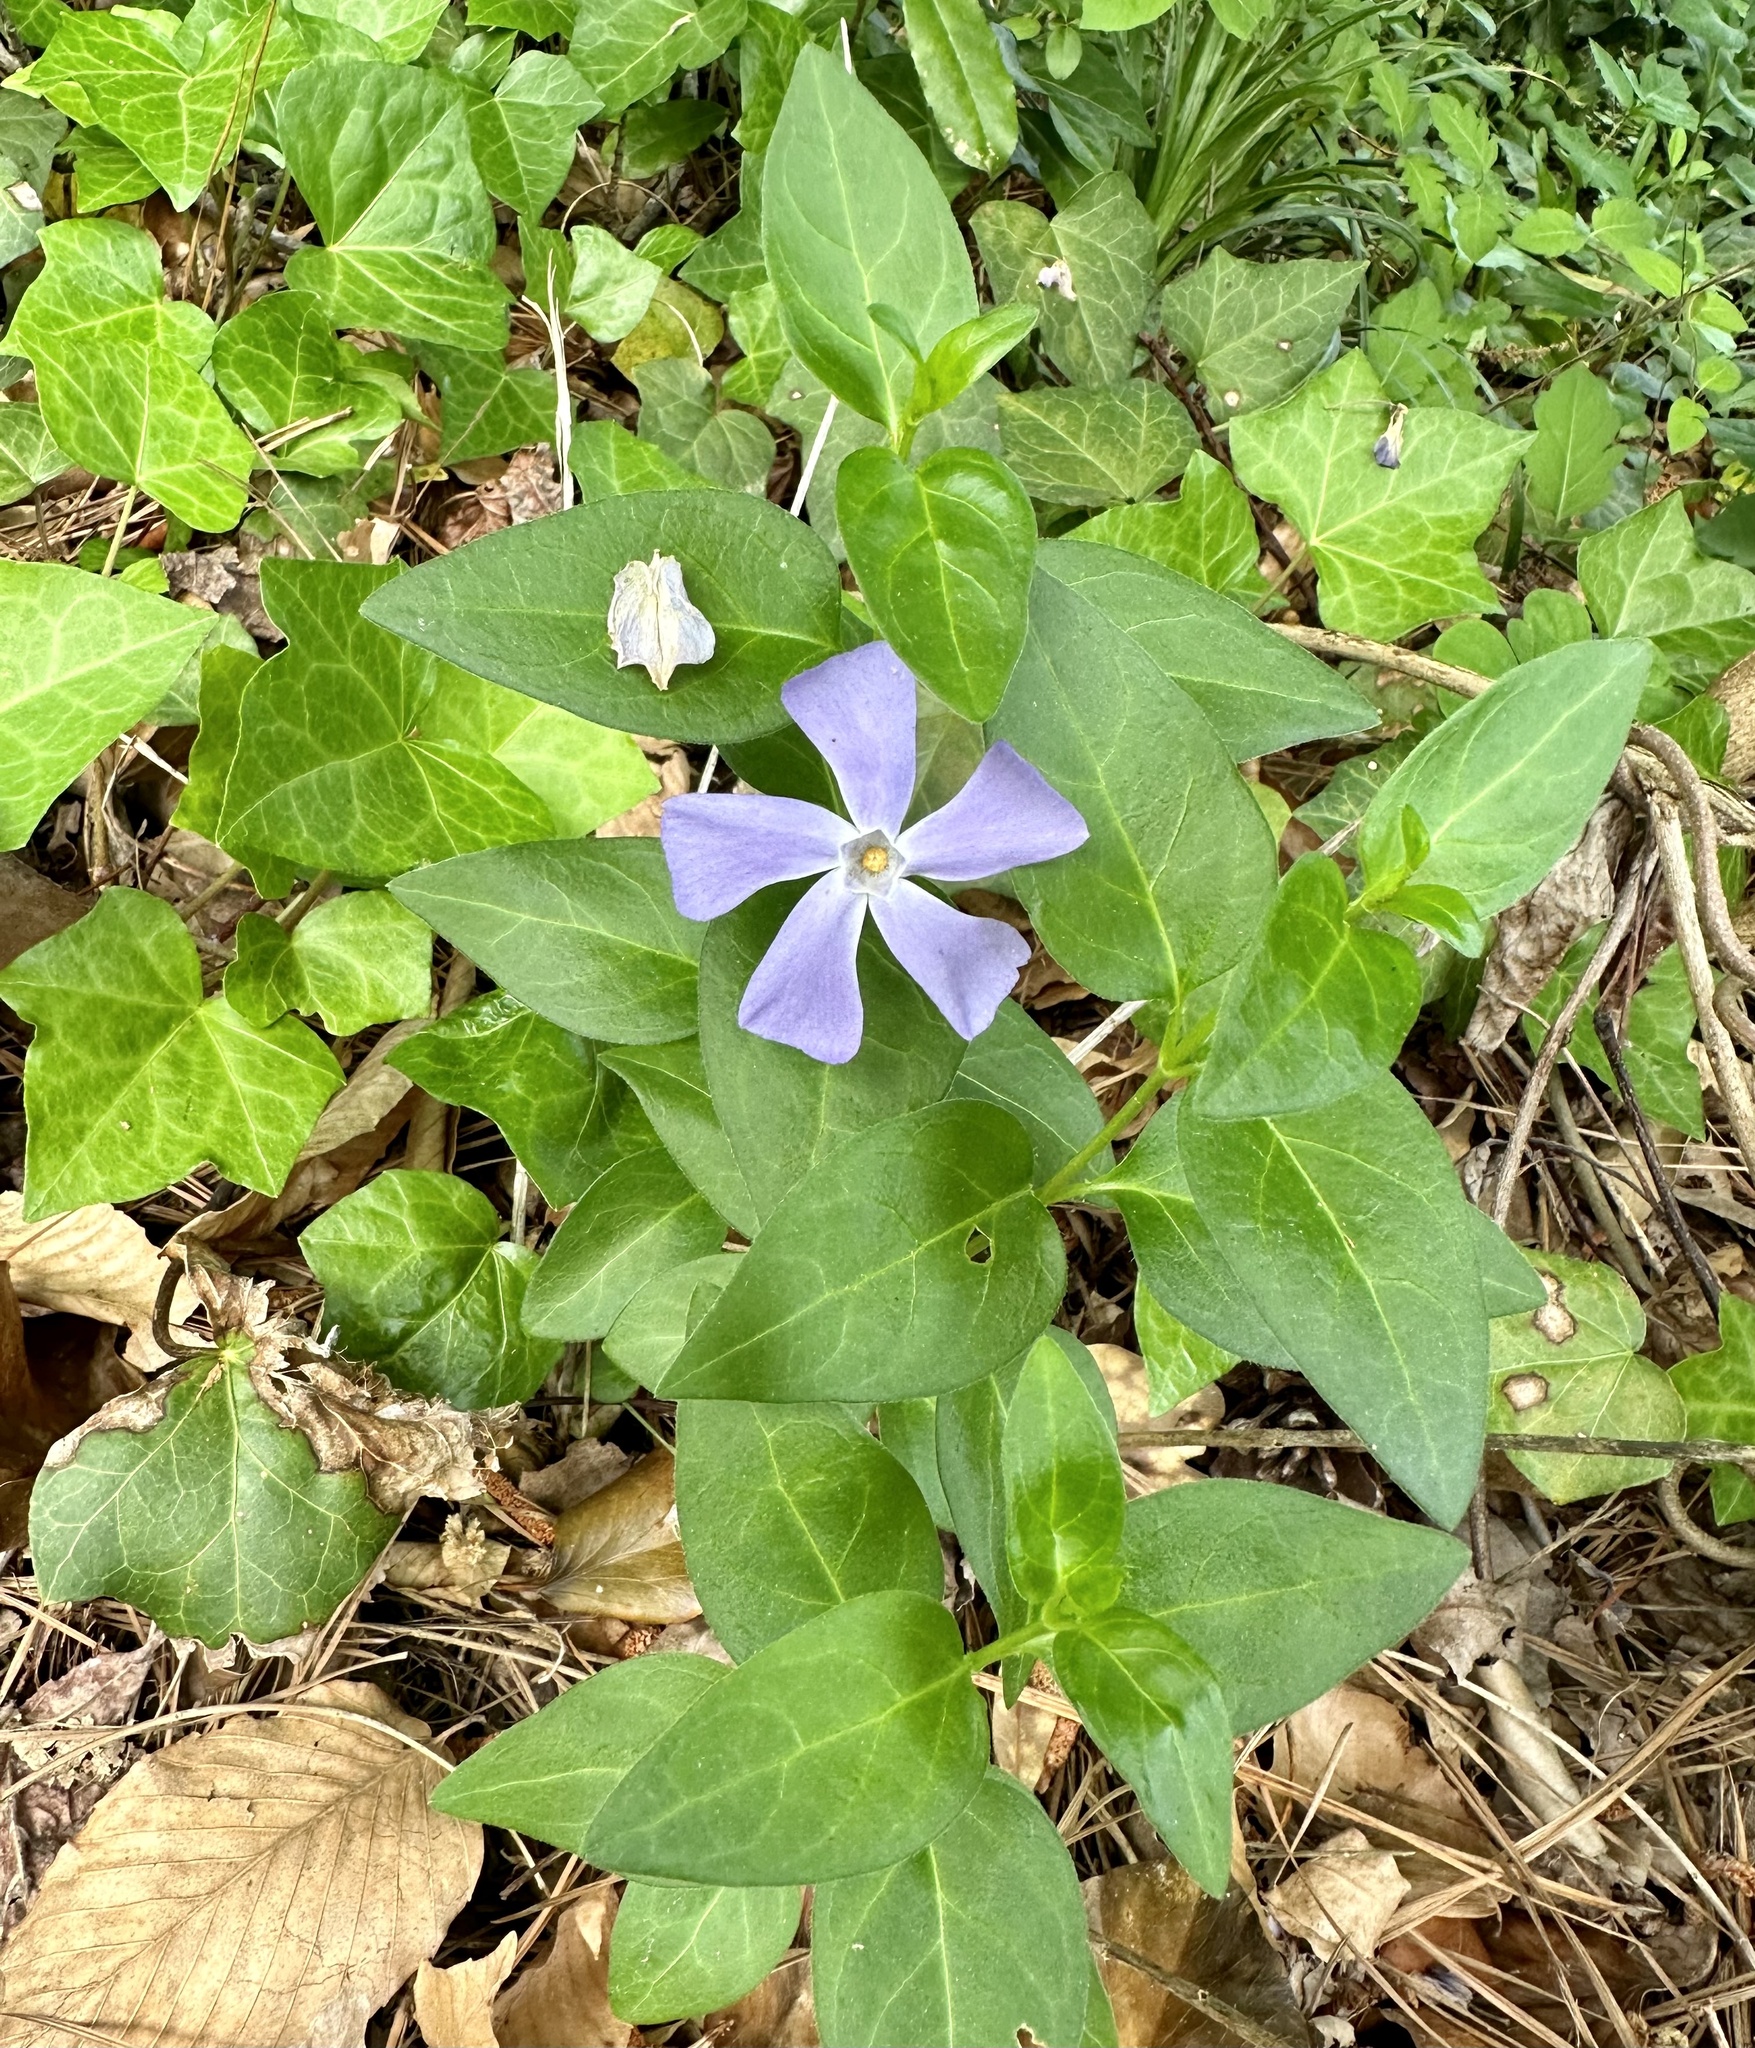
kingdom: Plantae
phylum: Tracheophyta
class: Magnoliopsida
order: Gentianales
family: Apocynaceae
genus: Vinca
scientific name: Vinca major
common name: Greater periwinkle
